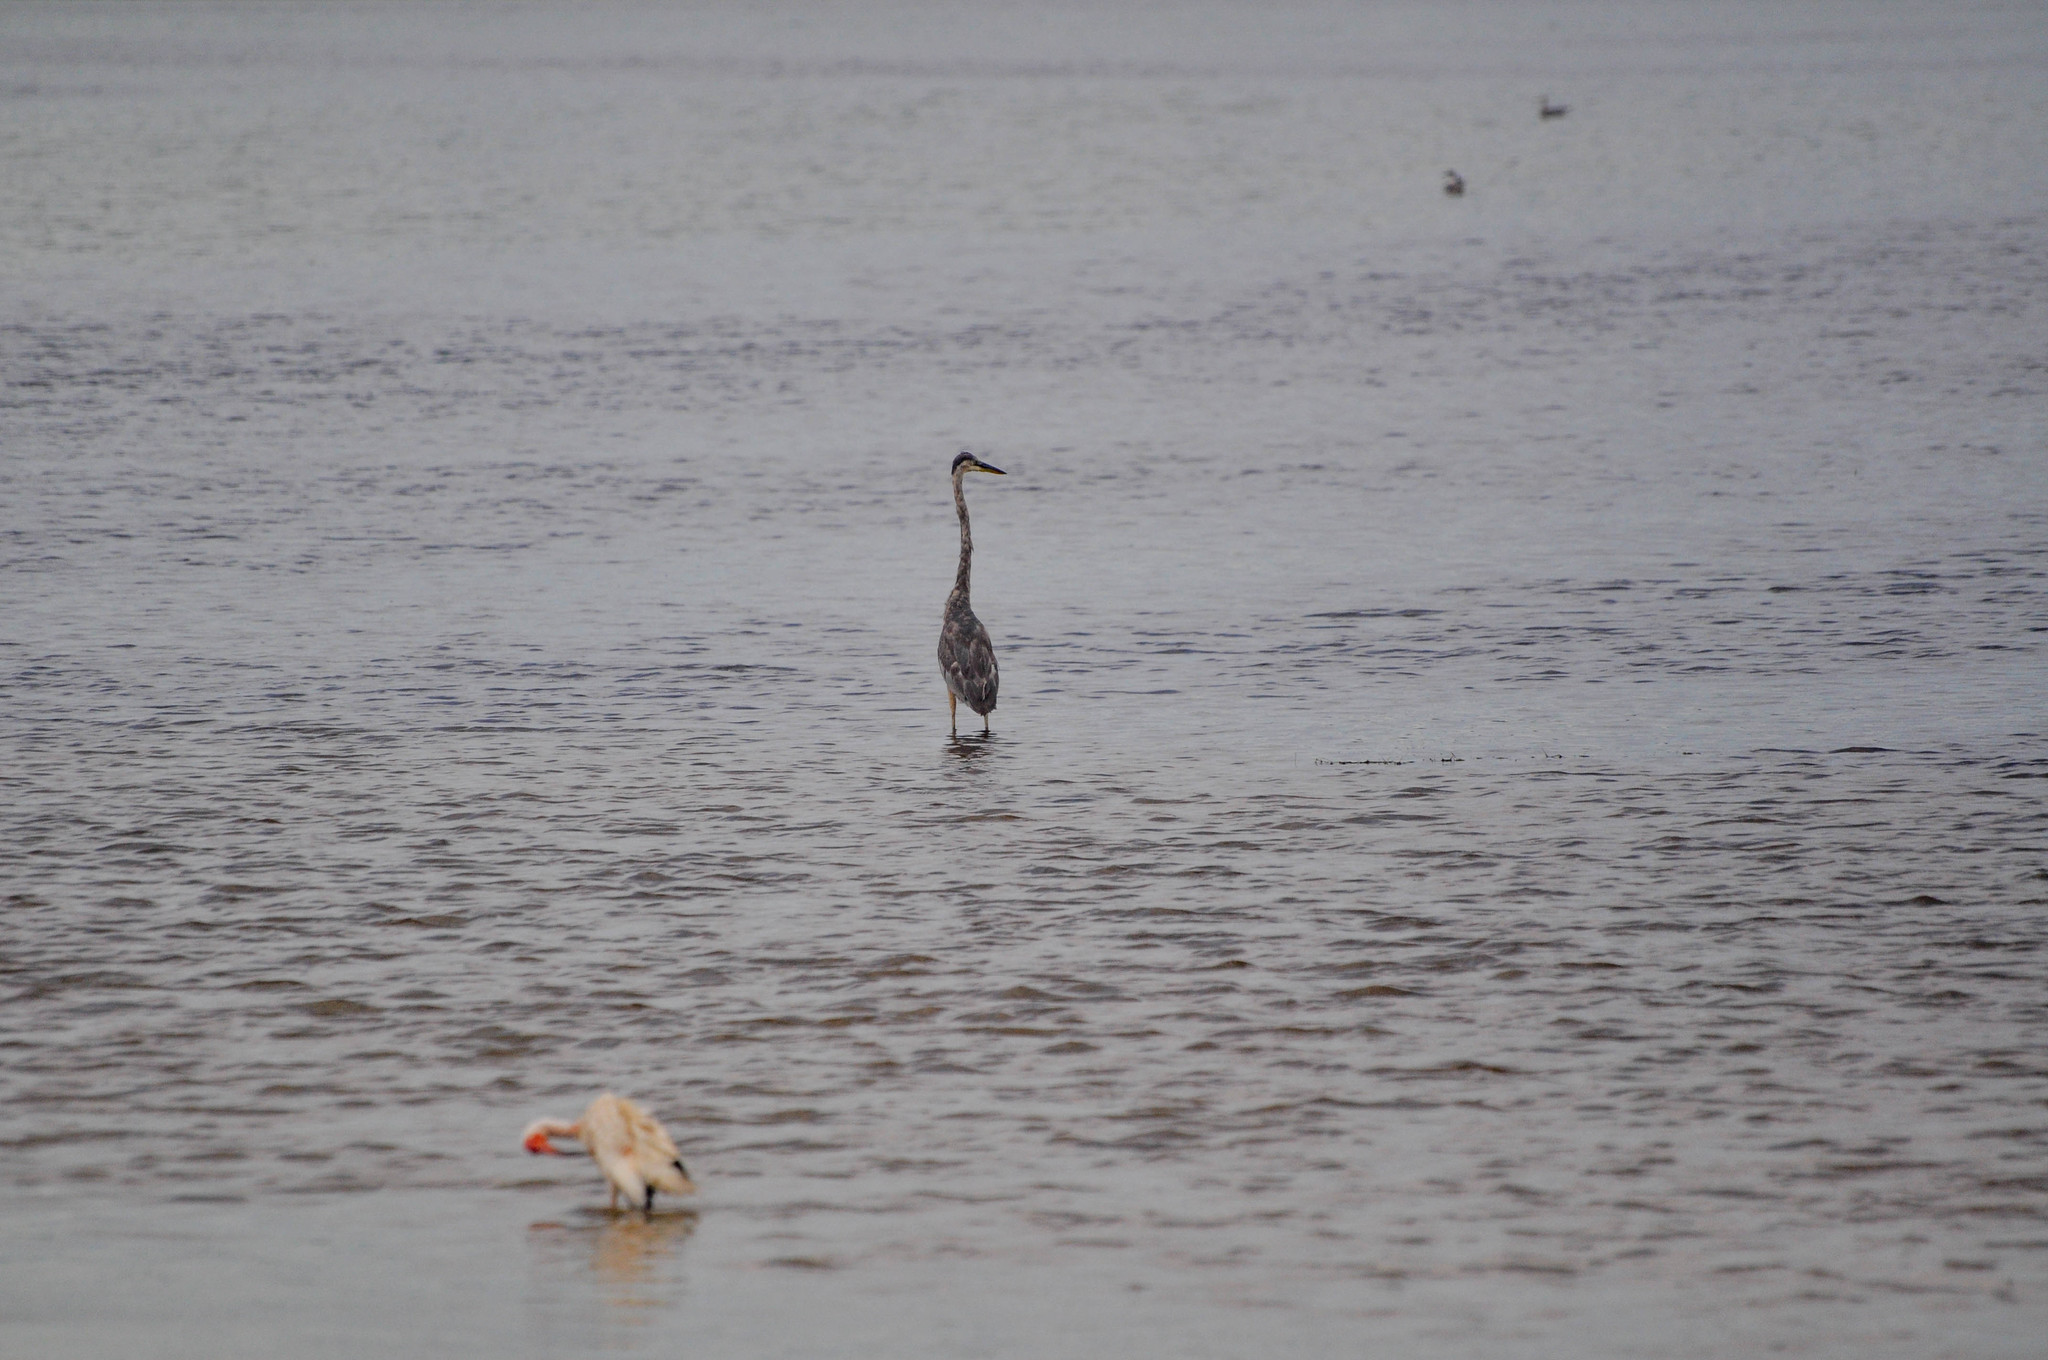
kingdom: Animalia
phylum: Chordata
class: Aves
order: Pelecaniformes
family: Threskiornithidae
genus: Eudocimus
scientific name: Eudocimus albus
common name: White ibis
